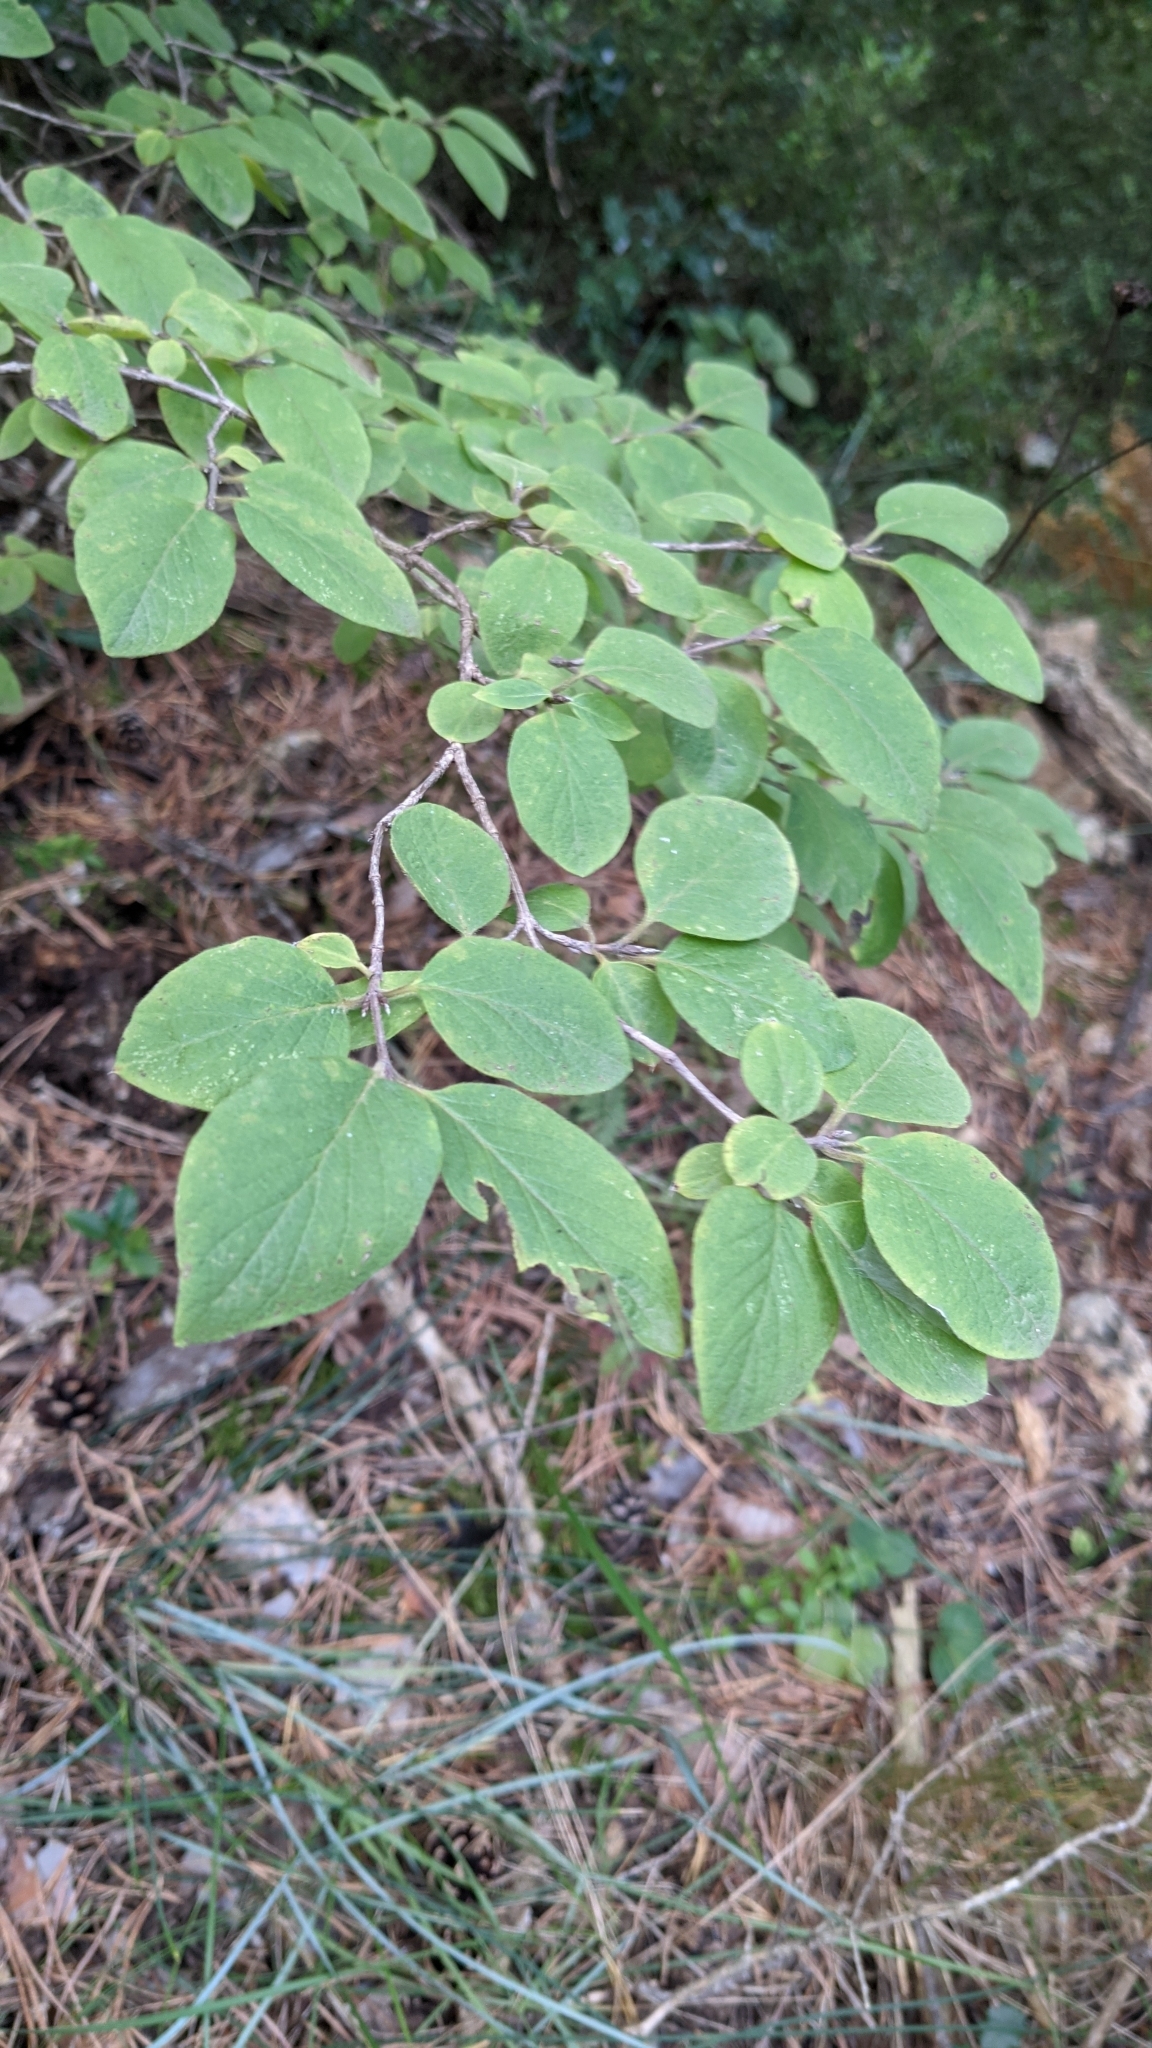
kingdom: Plantae
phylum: Tracheophyta
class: Magnoliopsida
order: Dipsacales
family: Caprifoliaceae
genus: Lonicera
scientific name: Lonicera xylosteum
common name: Fly honeysuckle
